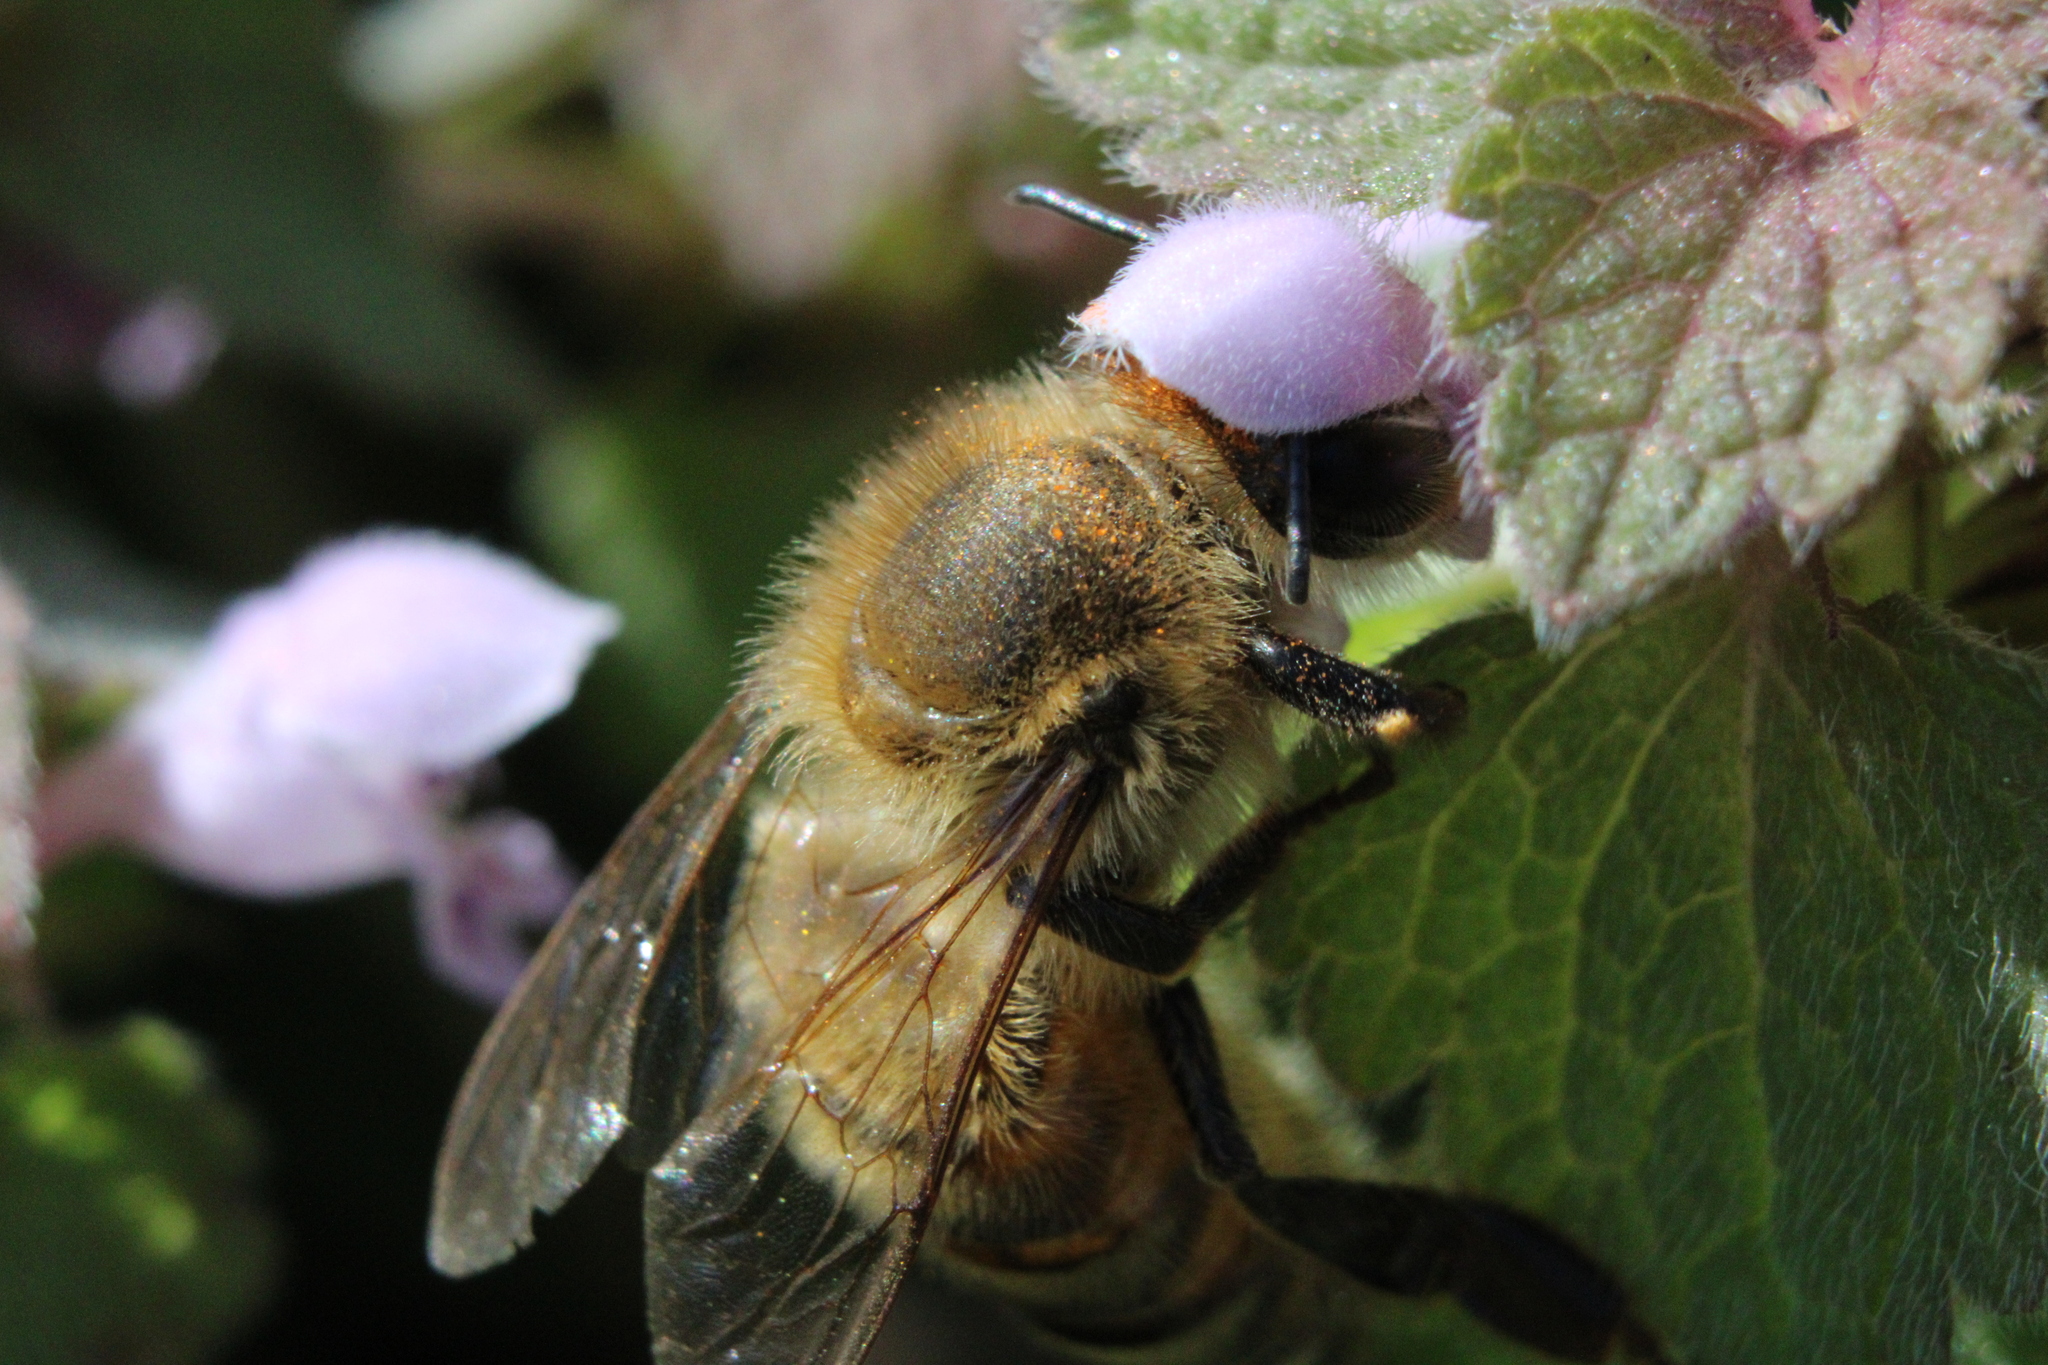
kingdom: Animalia
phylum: Arthropoda
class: Insecta
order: Hymenoptera
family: Apidae
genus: Apis
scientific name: Apis mellifera
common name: Honey bee
